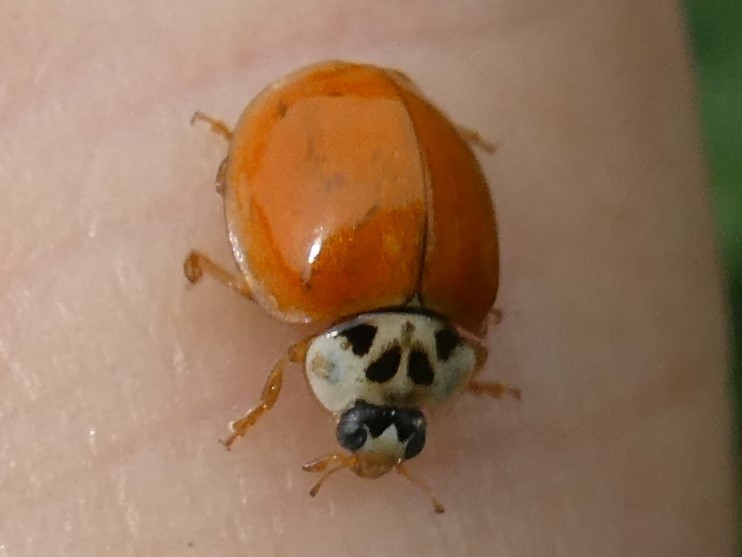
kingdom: Animalia
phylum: Arthropoda
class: Insecta
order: Coleoptera
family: Coccinellidae
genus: Harmonia
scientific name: Harmonia axyridis
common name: Harlequin ladybird
